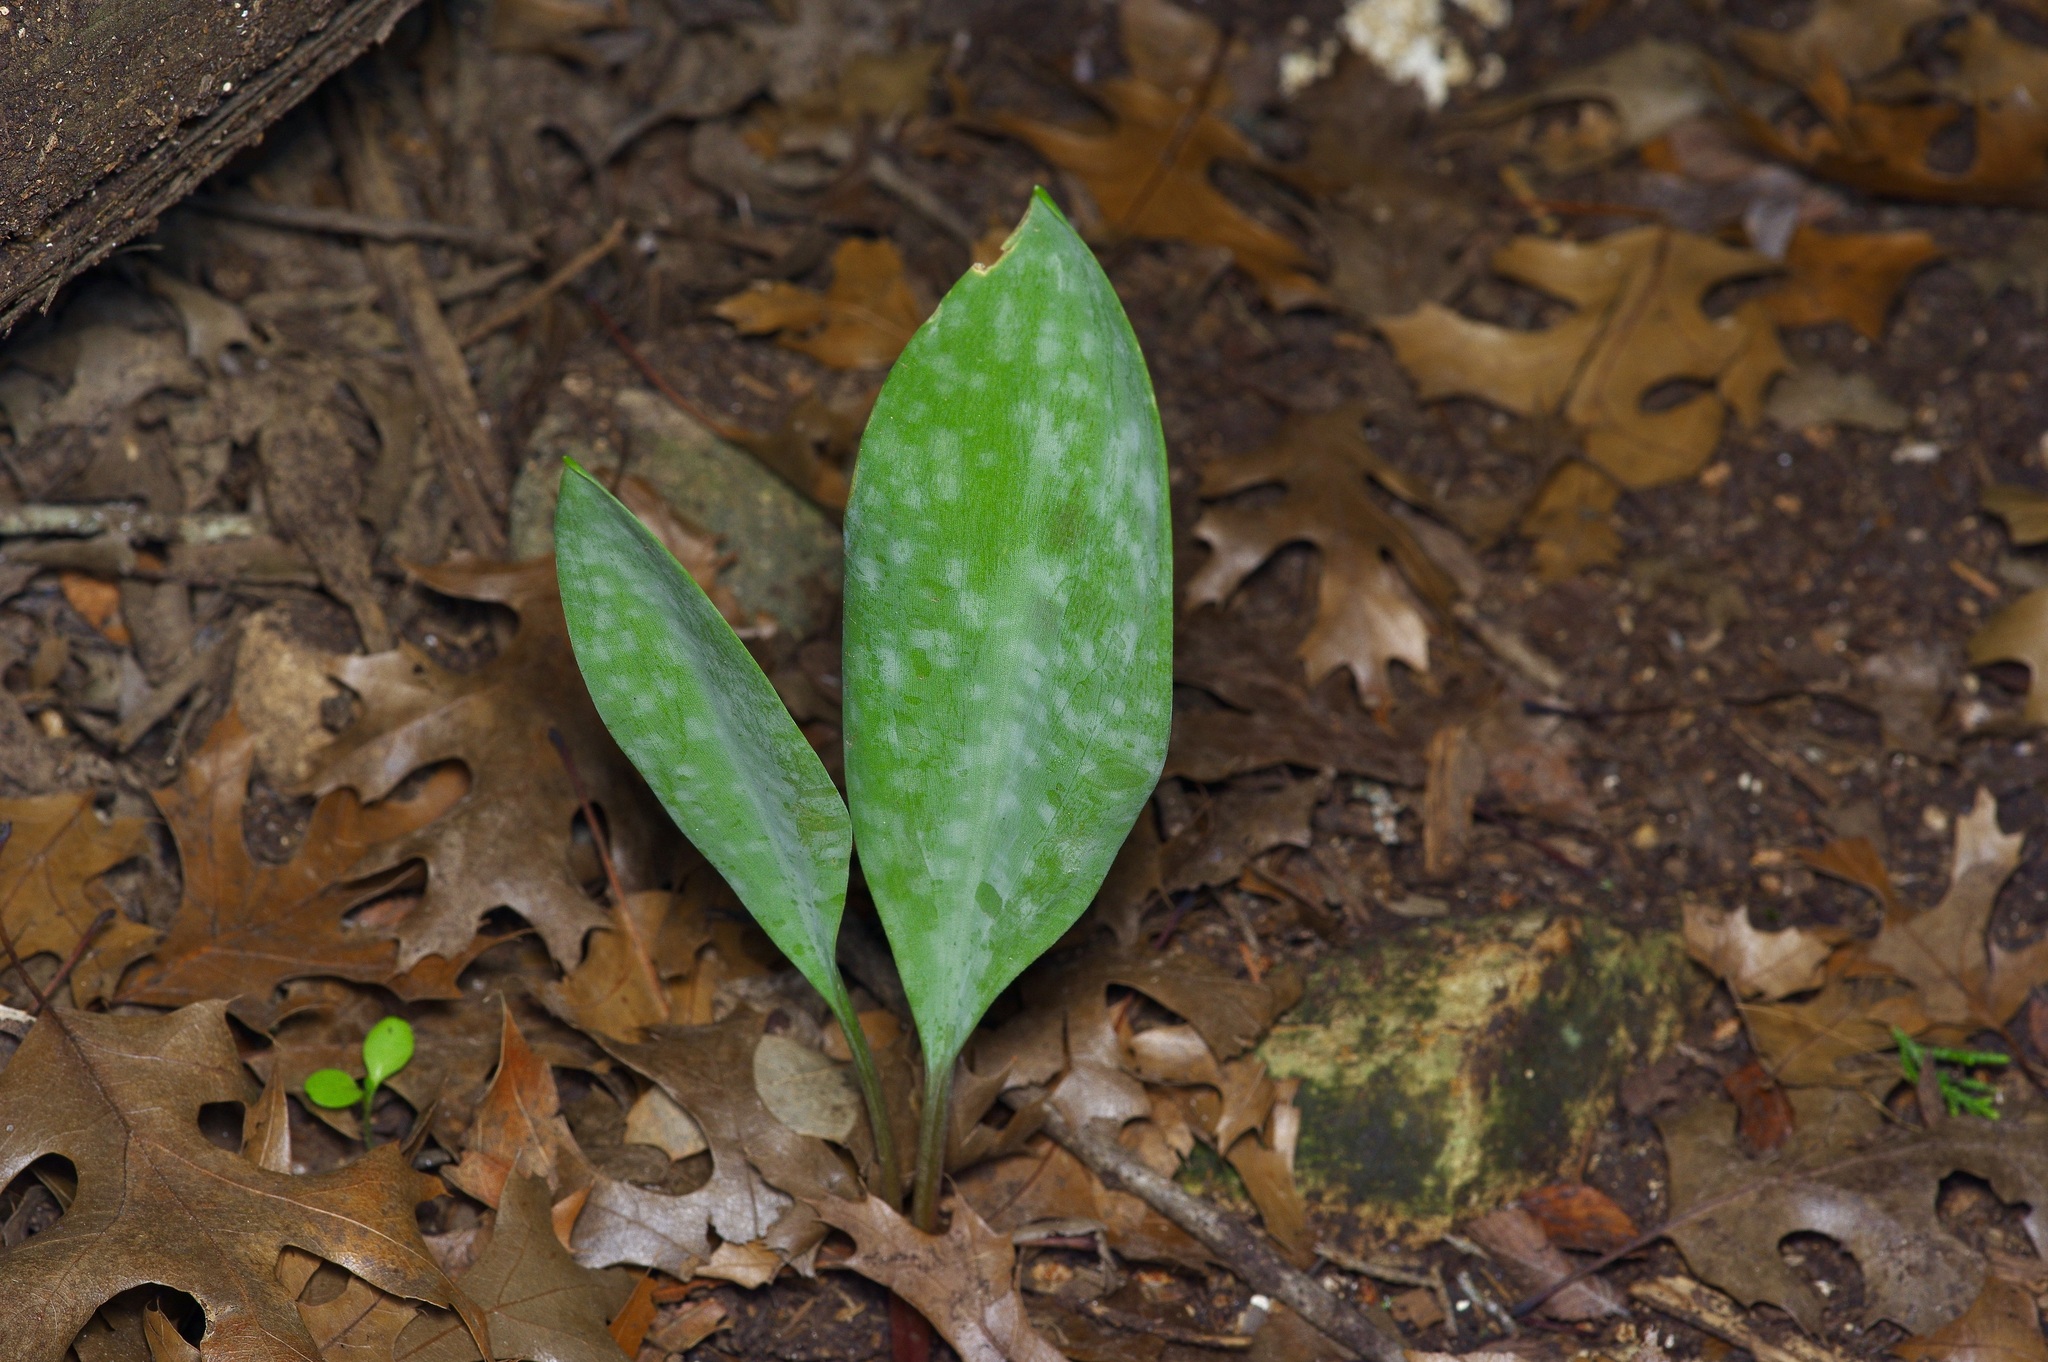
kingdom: Plantae
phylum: Tracheophyta
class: Liliopsida
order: Liliales
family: Liliaceae
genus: Erythronium
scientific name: Erythronium albidum
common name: White trout-lily
